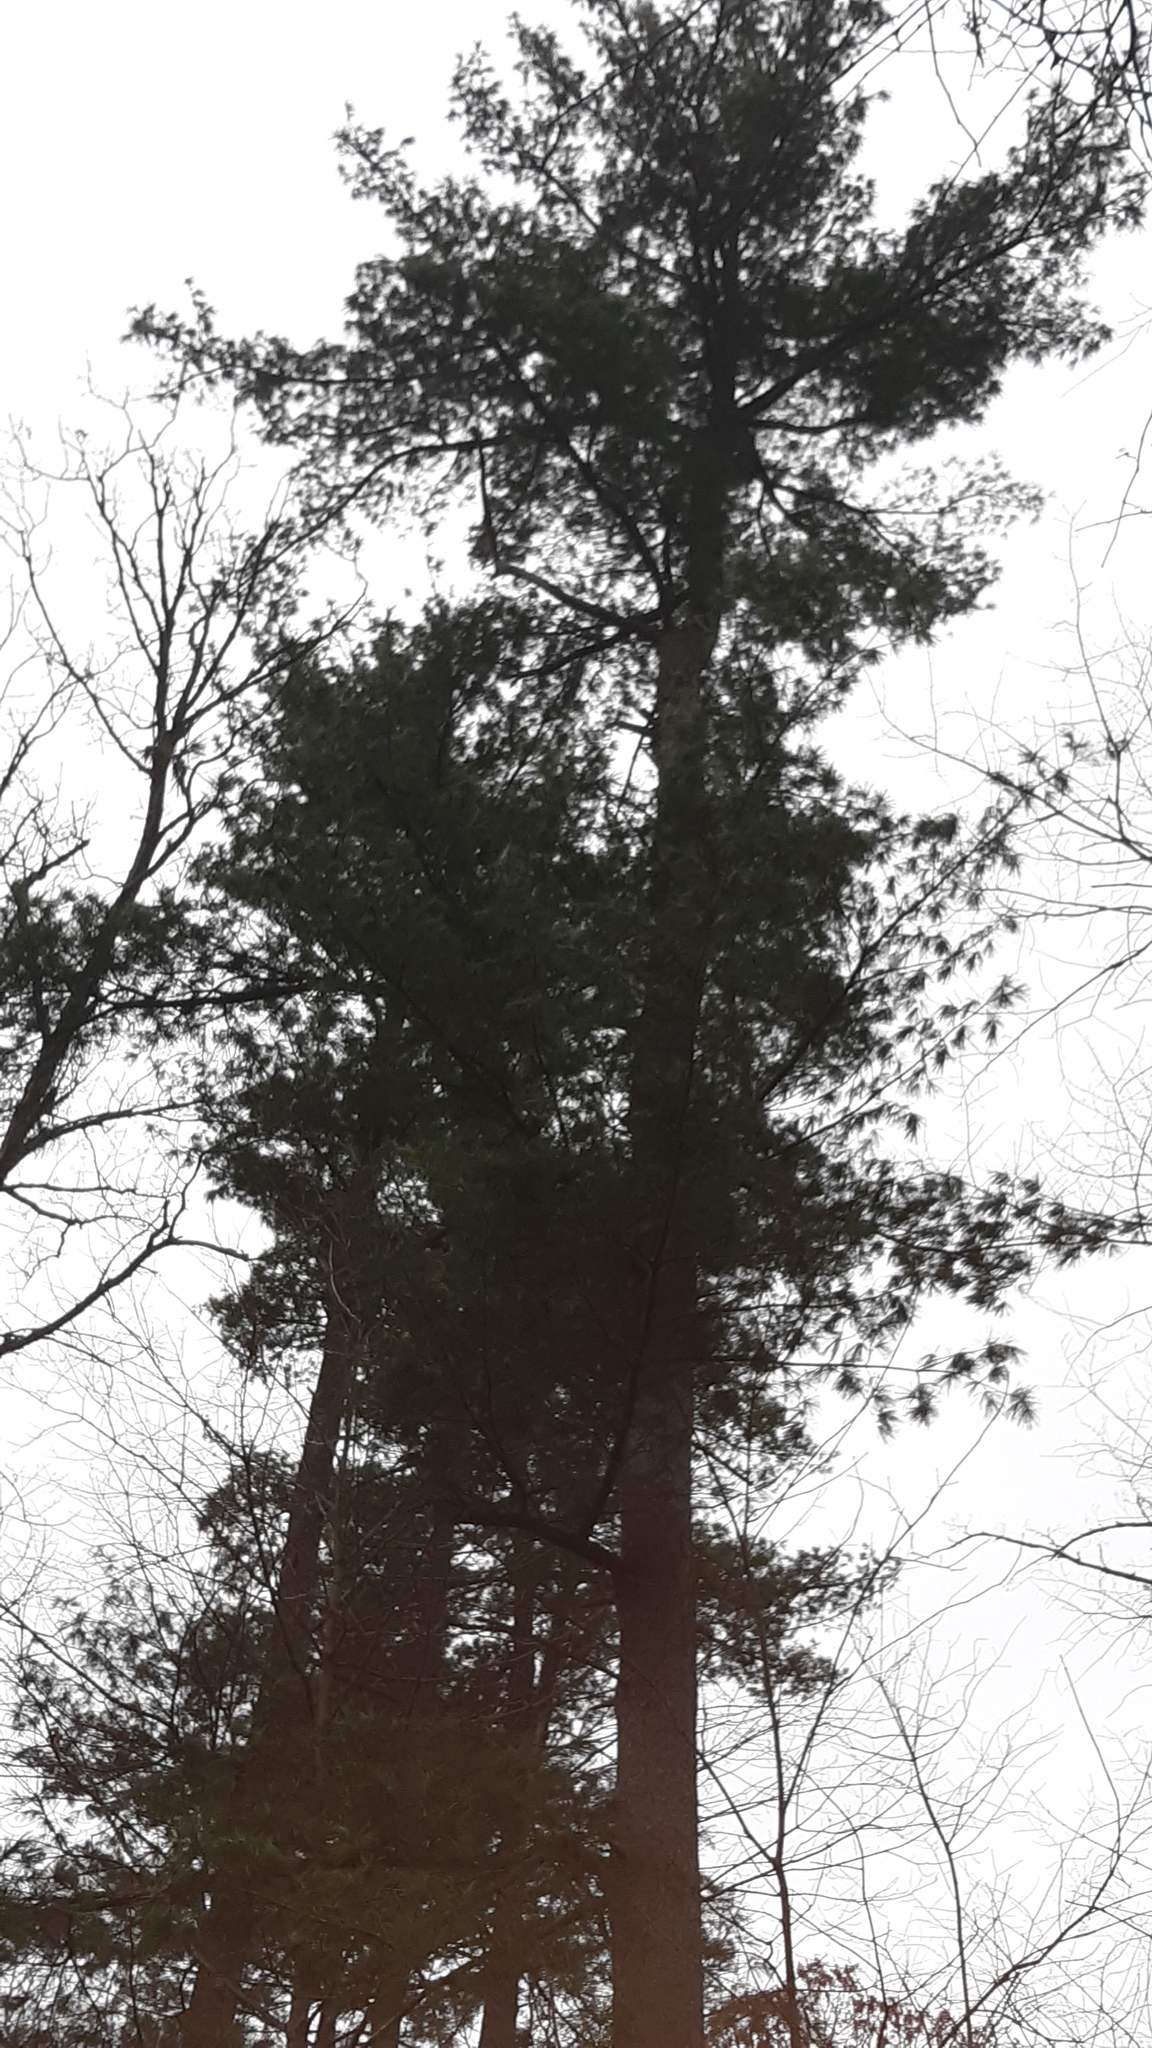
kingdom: Plantae
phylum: Tracheophyta
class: Pinopsida
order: Pinales
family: Pinaceae
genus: Pinus
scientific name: Pinus strobus
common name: Weymouth pine
